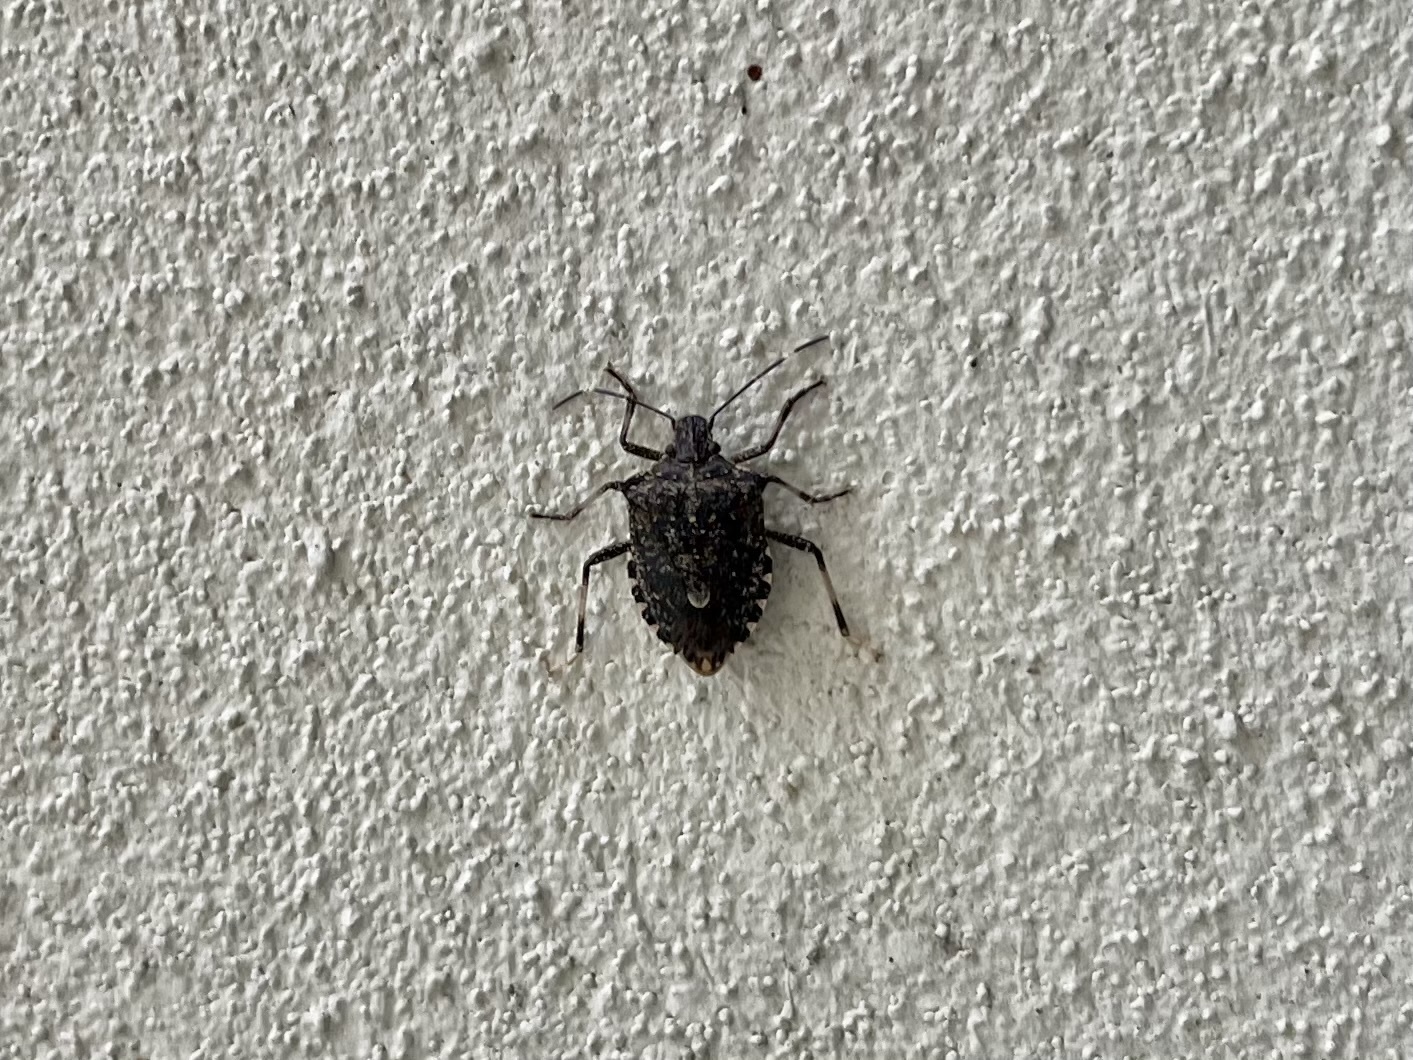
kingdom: Animalia
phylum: Arthropoda
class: Insecta
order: Hemiptera
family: Pentatomidae
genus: Halyomorpha
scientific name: Halyomorpha halys
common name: Brown marmorated stink bug
